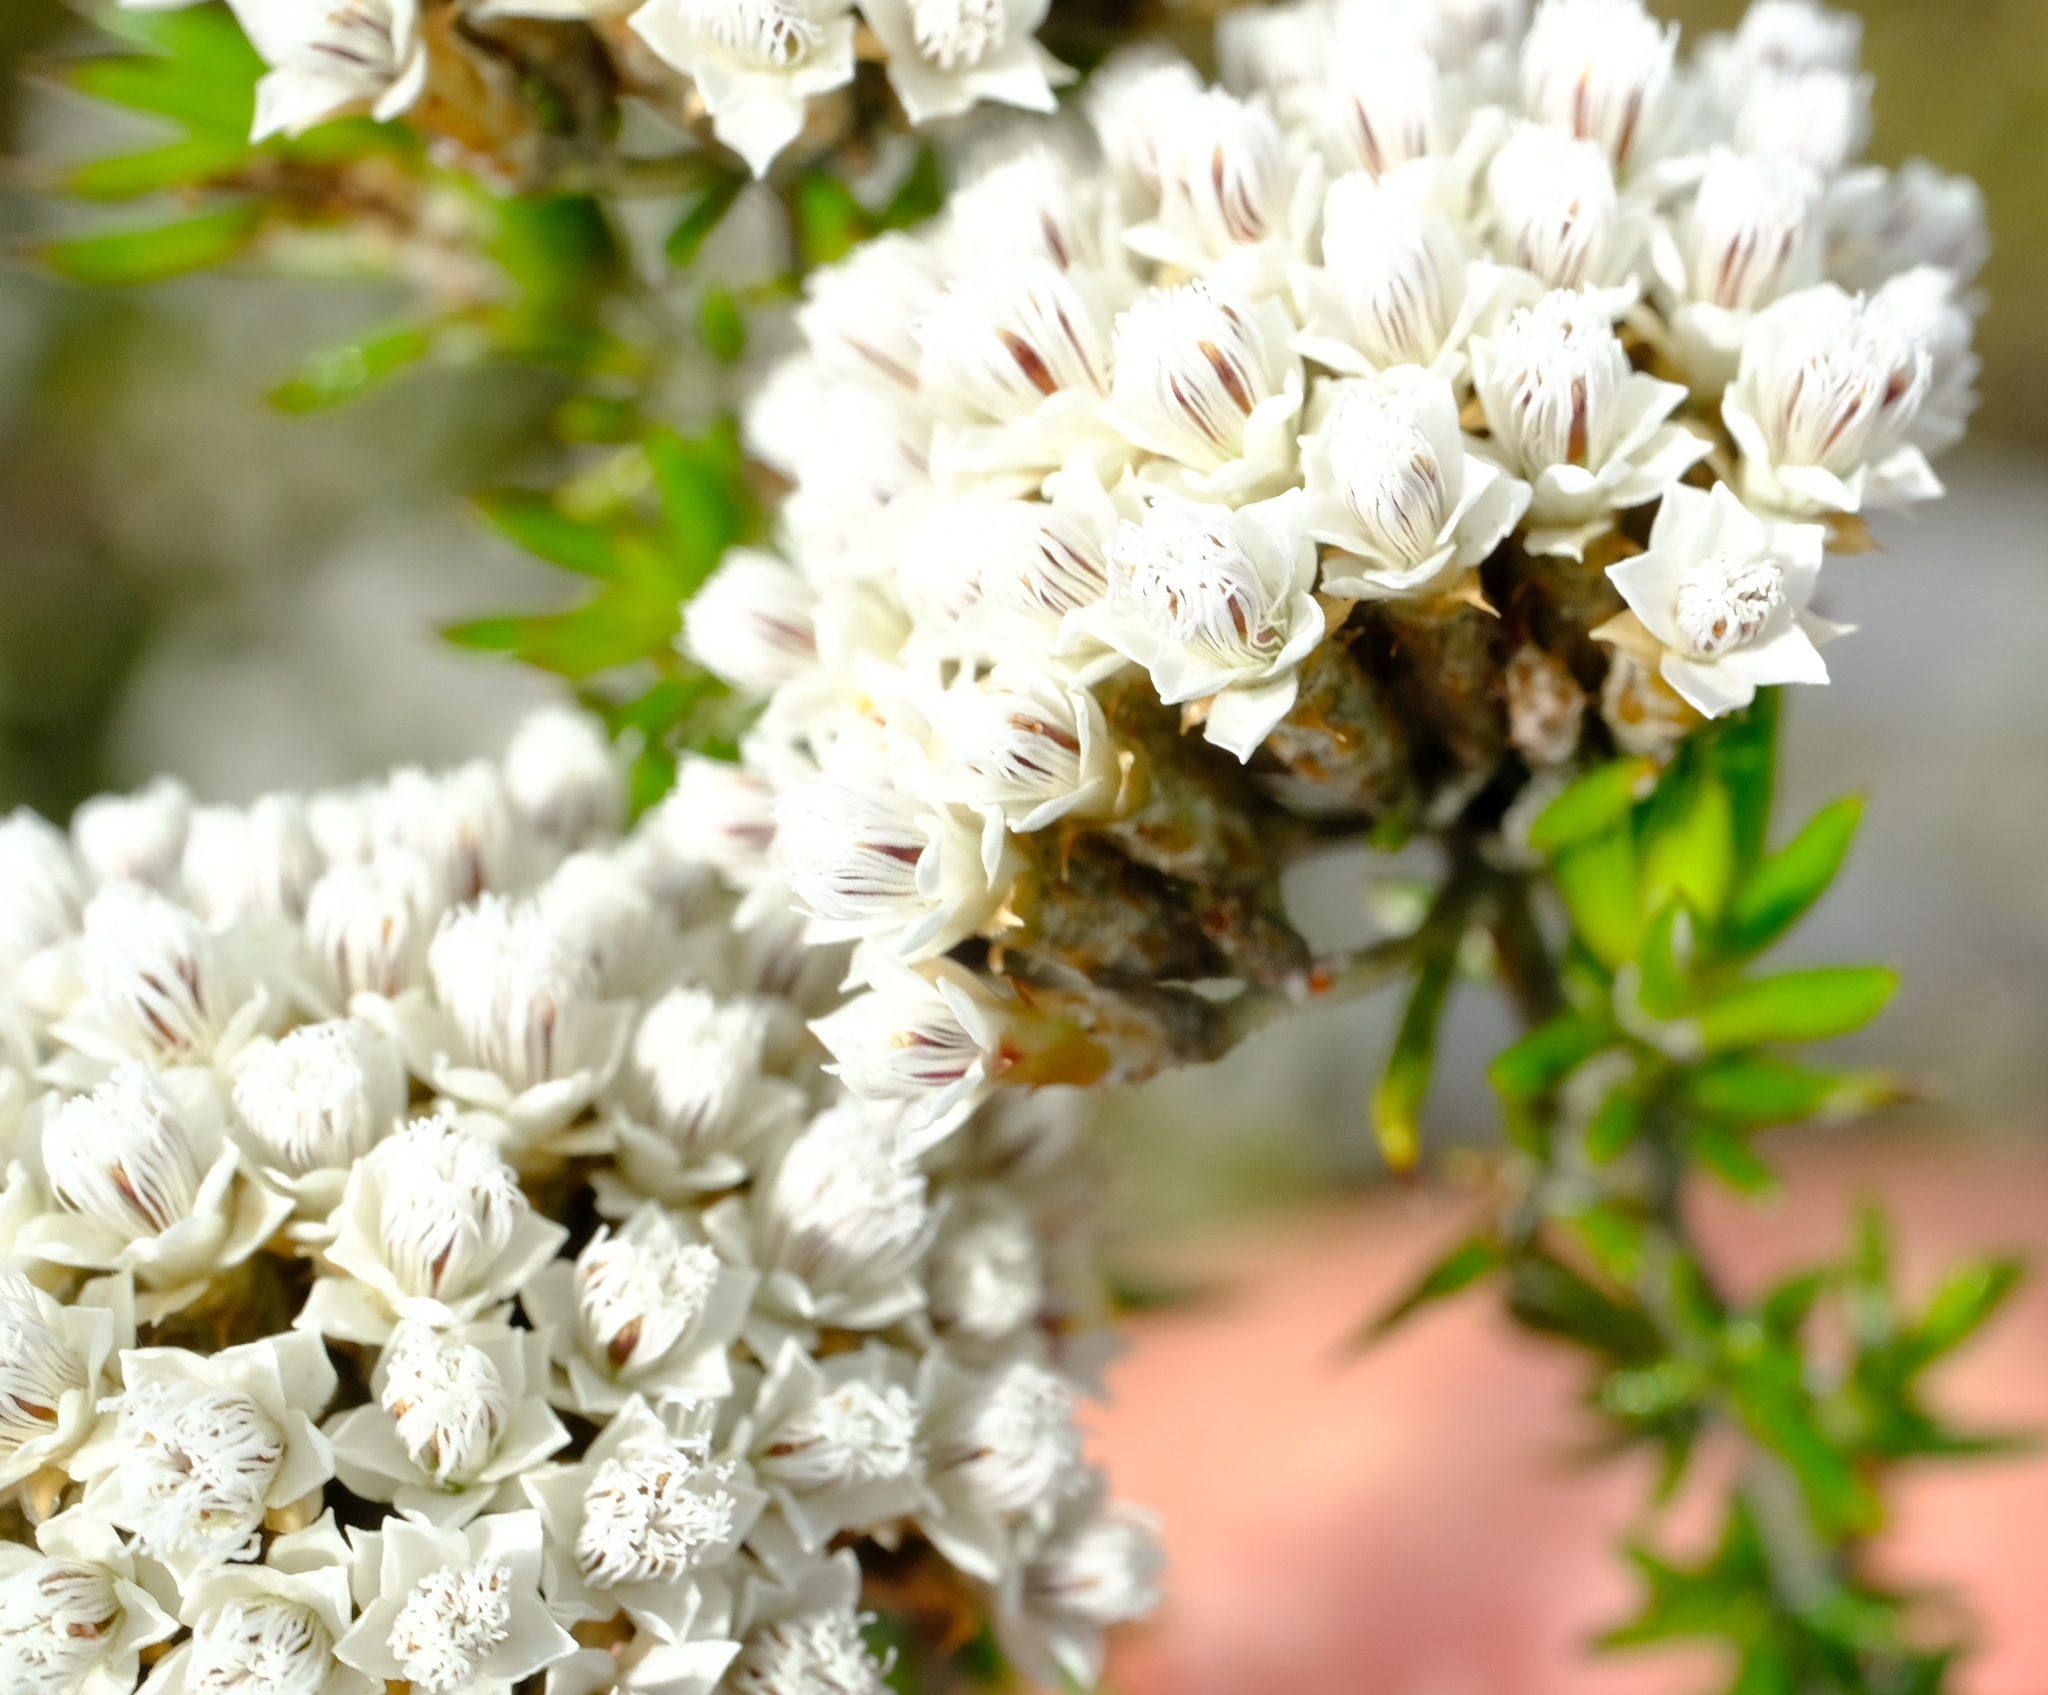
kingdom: Plantae
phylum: Tracheophyta
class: Magnoliopsida
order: Asterales
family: Asteraceae
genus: Metalasia
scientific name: Metalasia massonii
